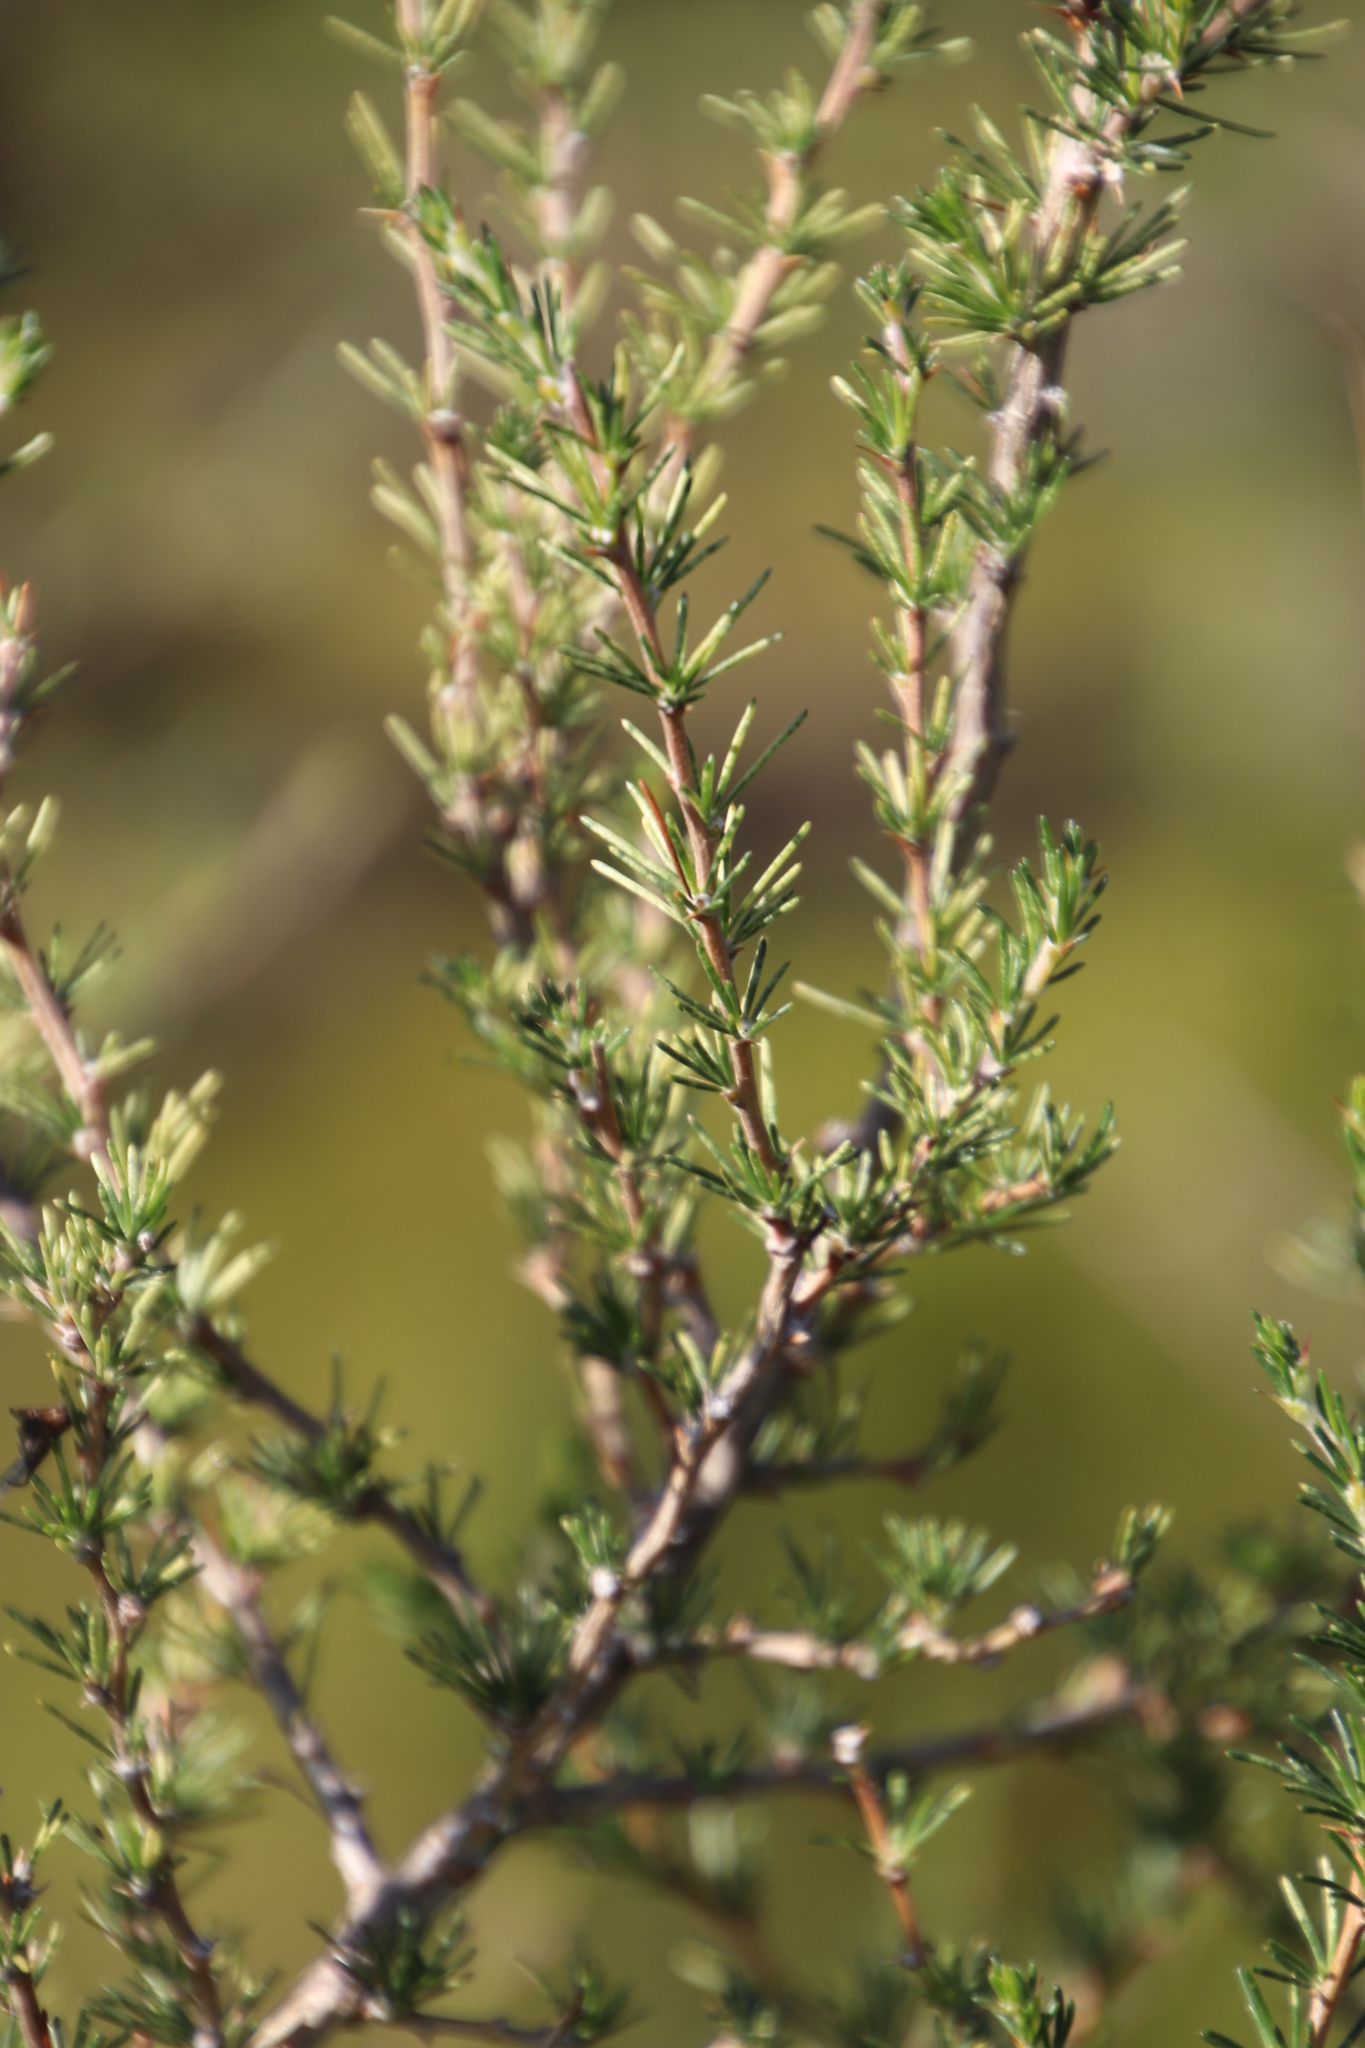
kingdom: Plantae
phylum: Tracheophyta
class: Magnoliopsida
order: Fabales
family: Fabaceae
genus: Aspalathus
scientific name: Aspalathus uniflora
